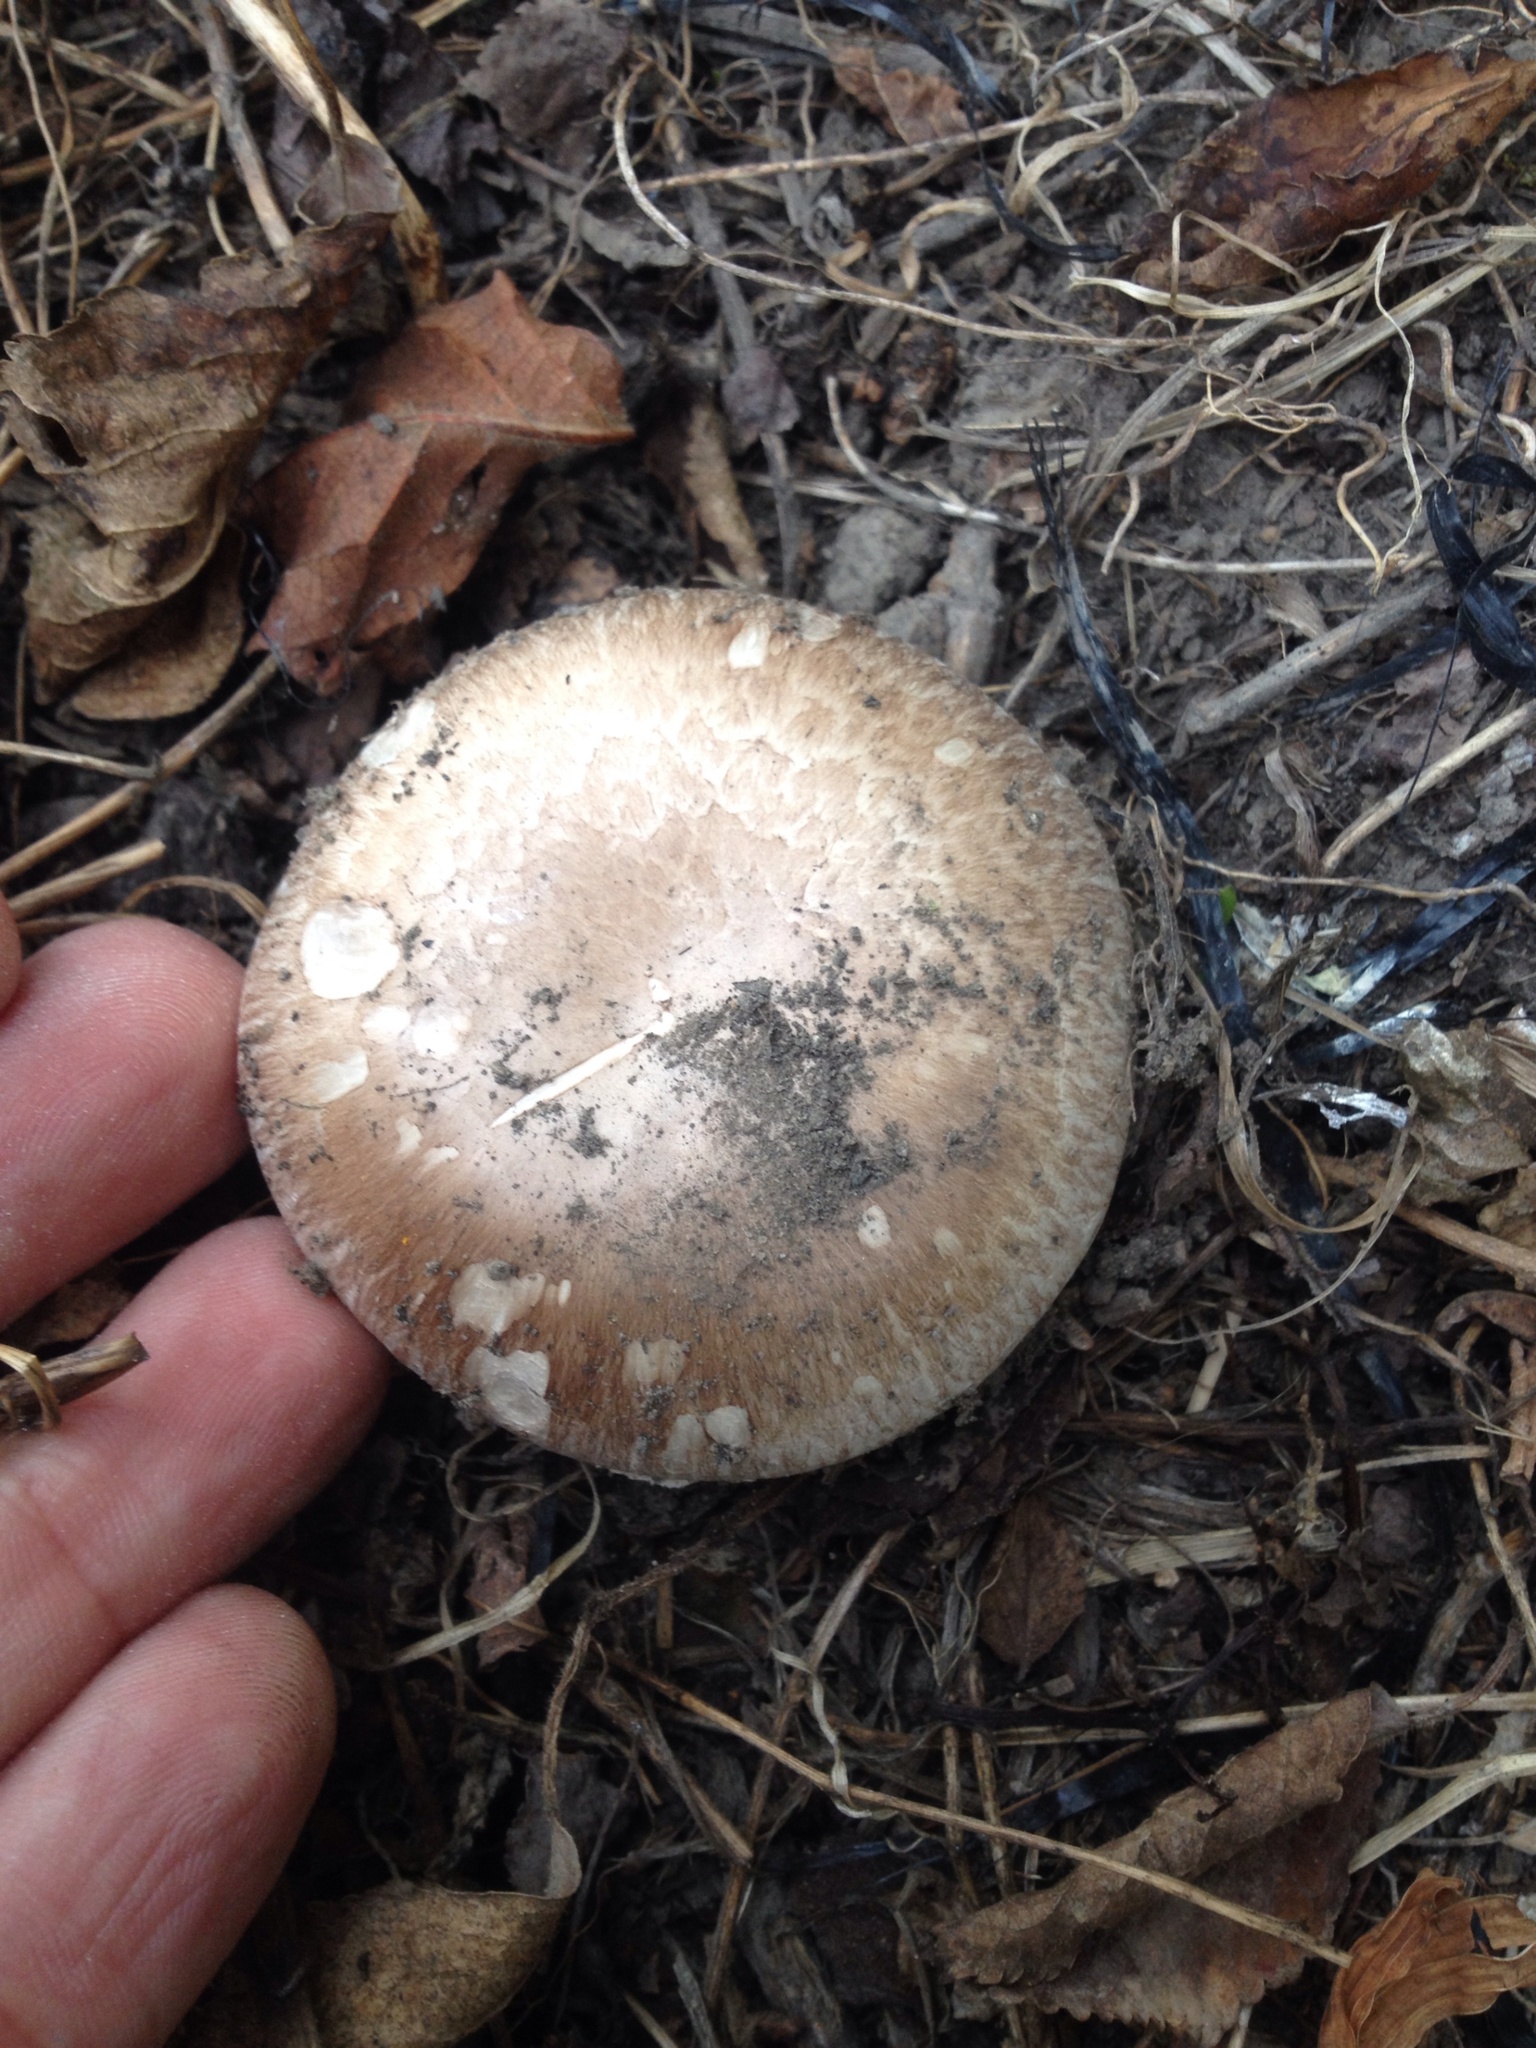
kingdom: Fungi
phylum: Basidiomycota
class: Agaricomycetes
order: Agaricales
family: Agaricaceae
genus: Agaricus
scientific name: Agaricus
